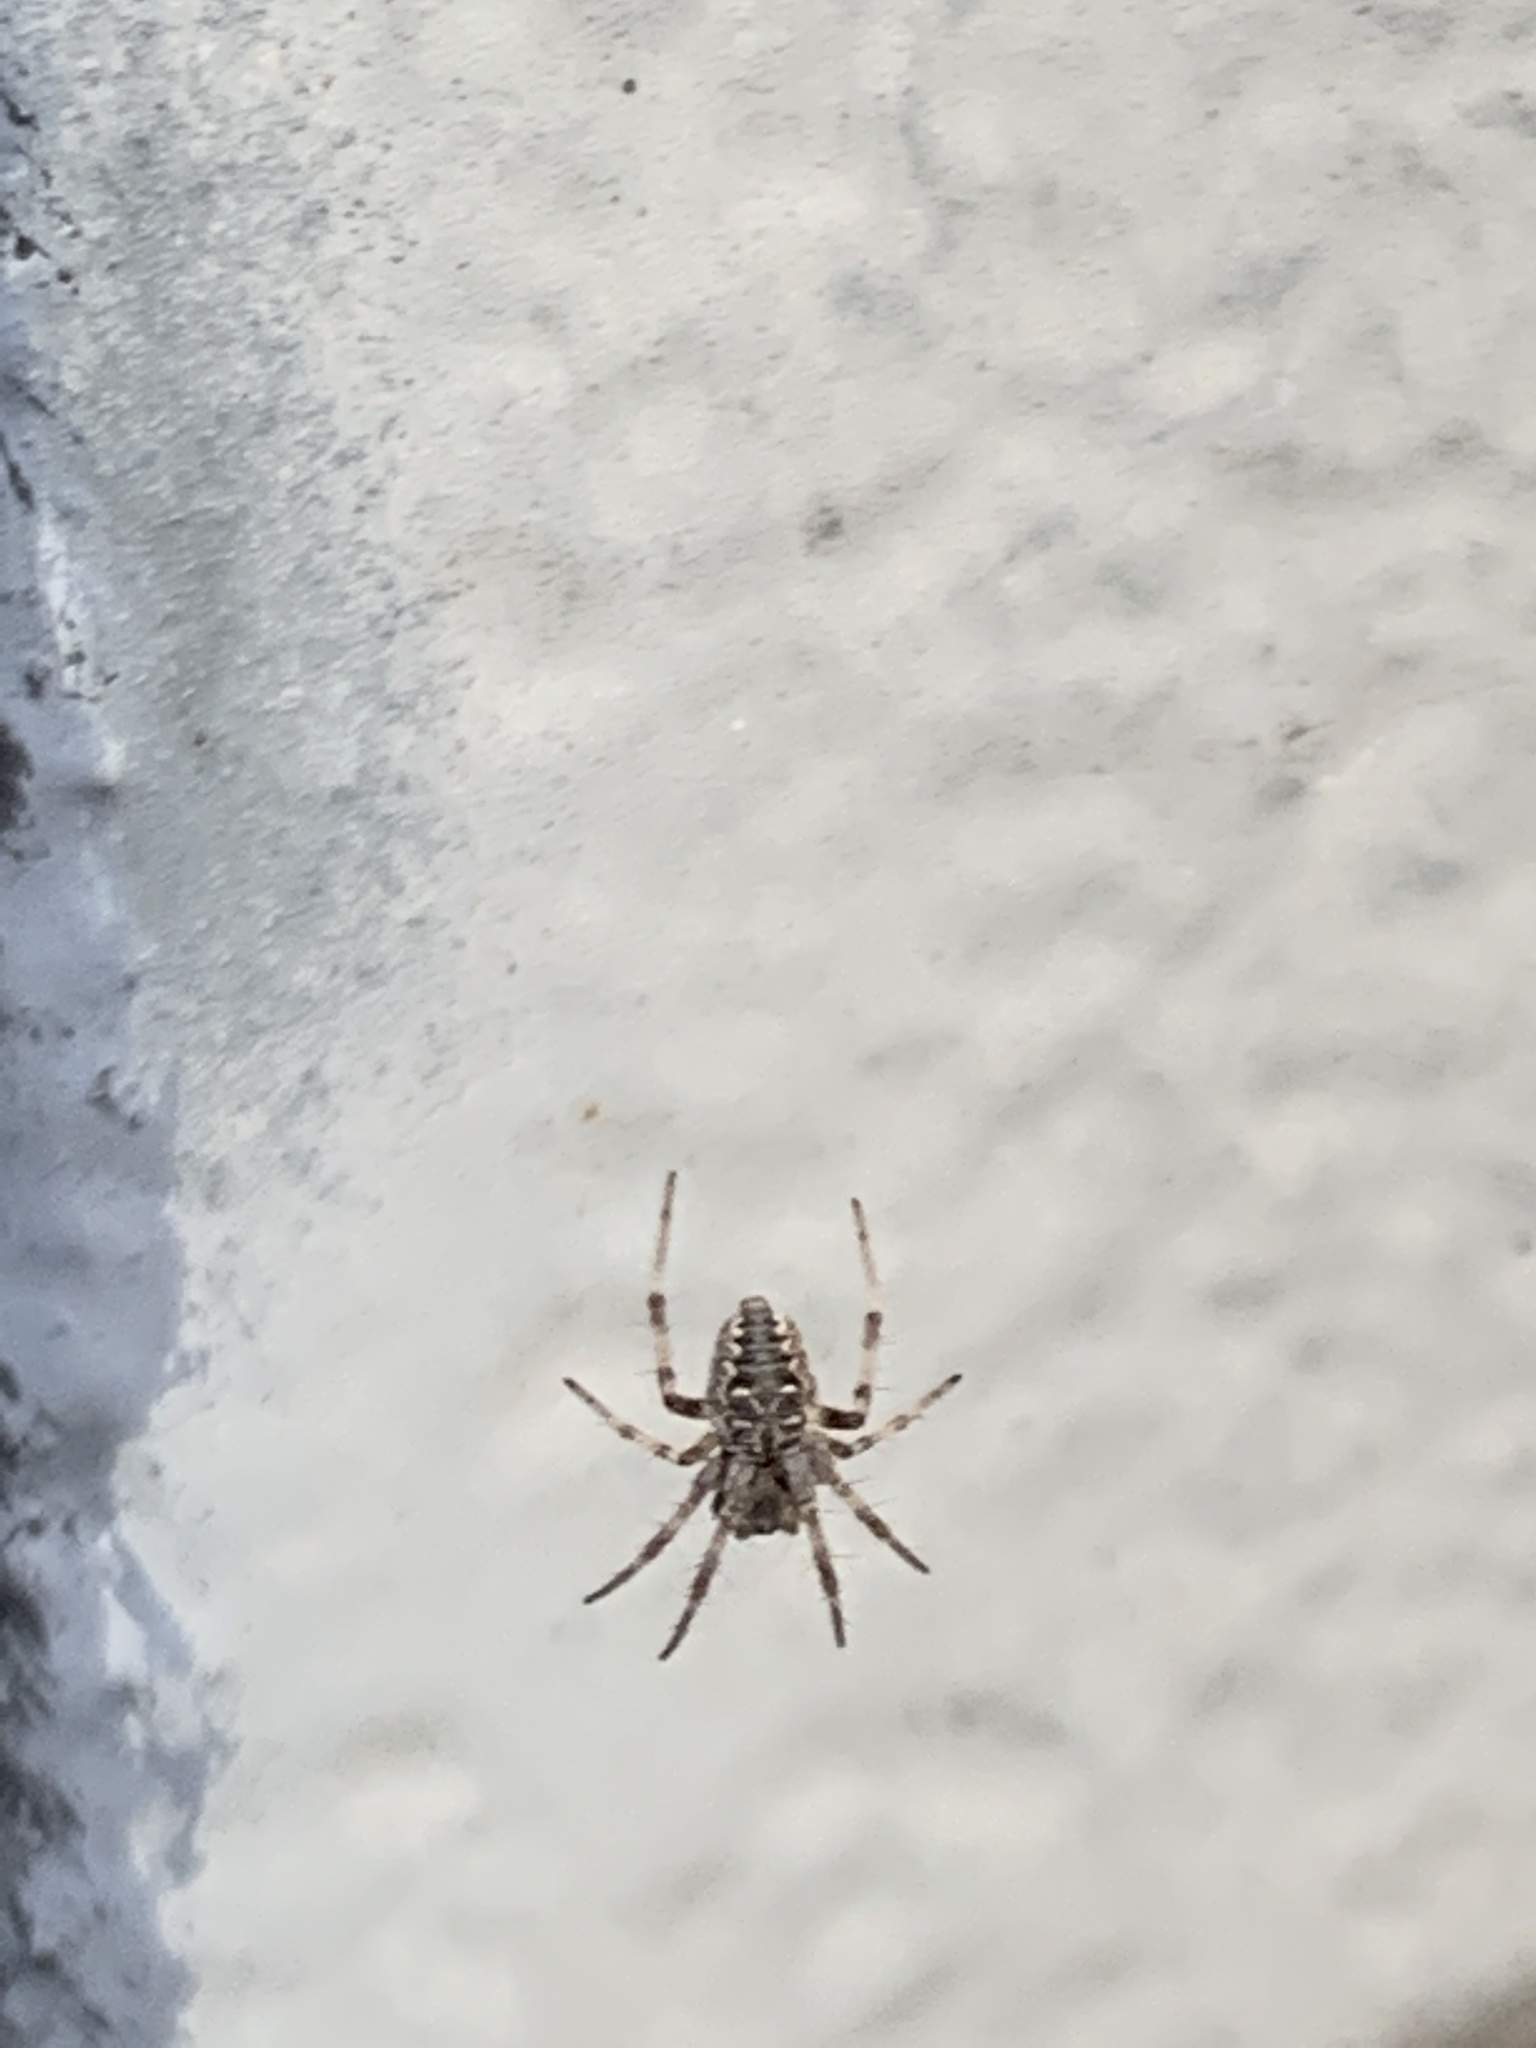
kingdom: Animalia
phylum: Arthropoda
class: Arachnida
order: Araneae
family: Araneidae
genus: Metepeira
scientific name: Metepeira
